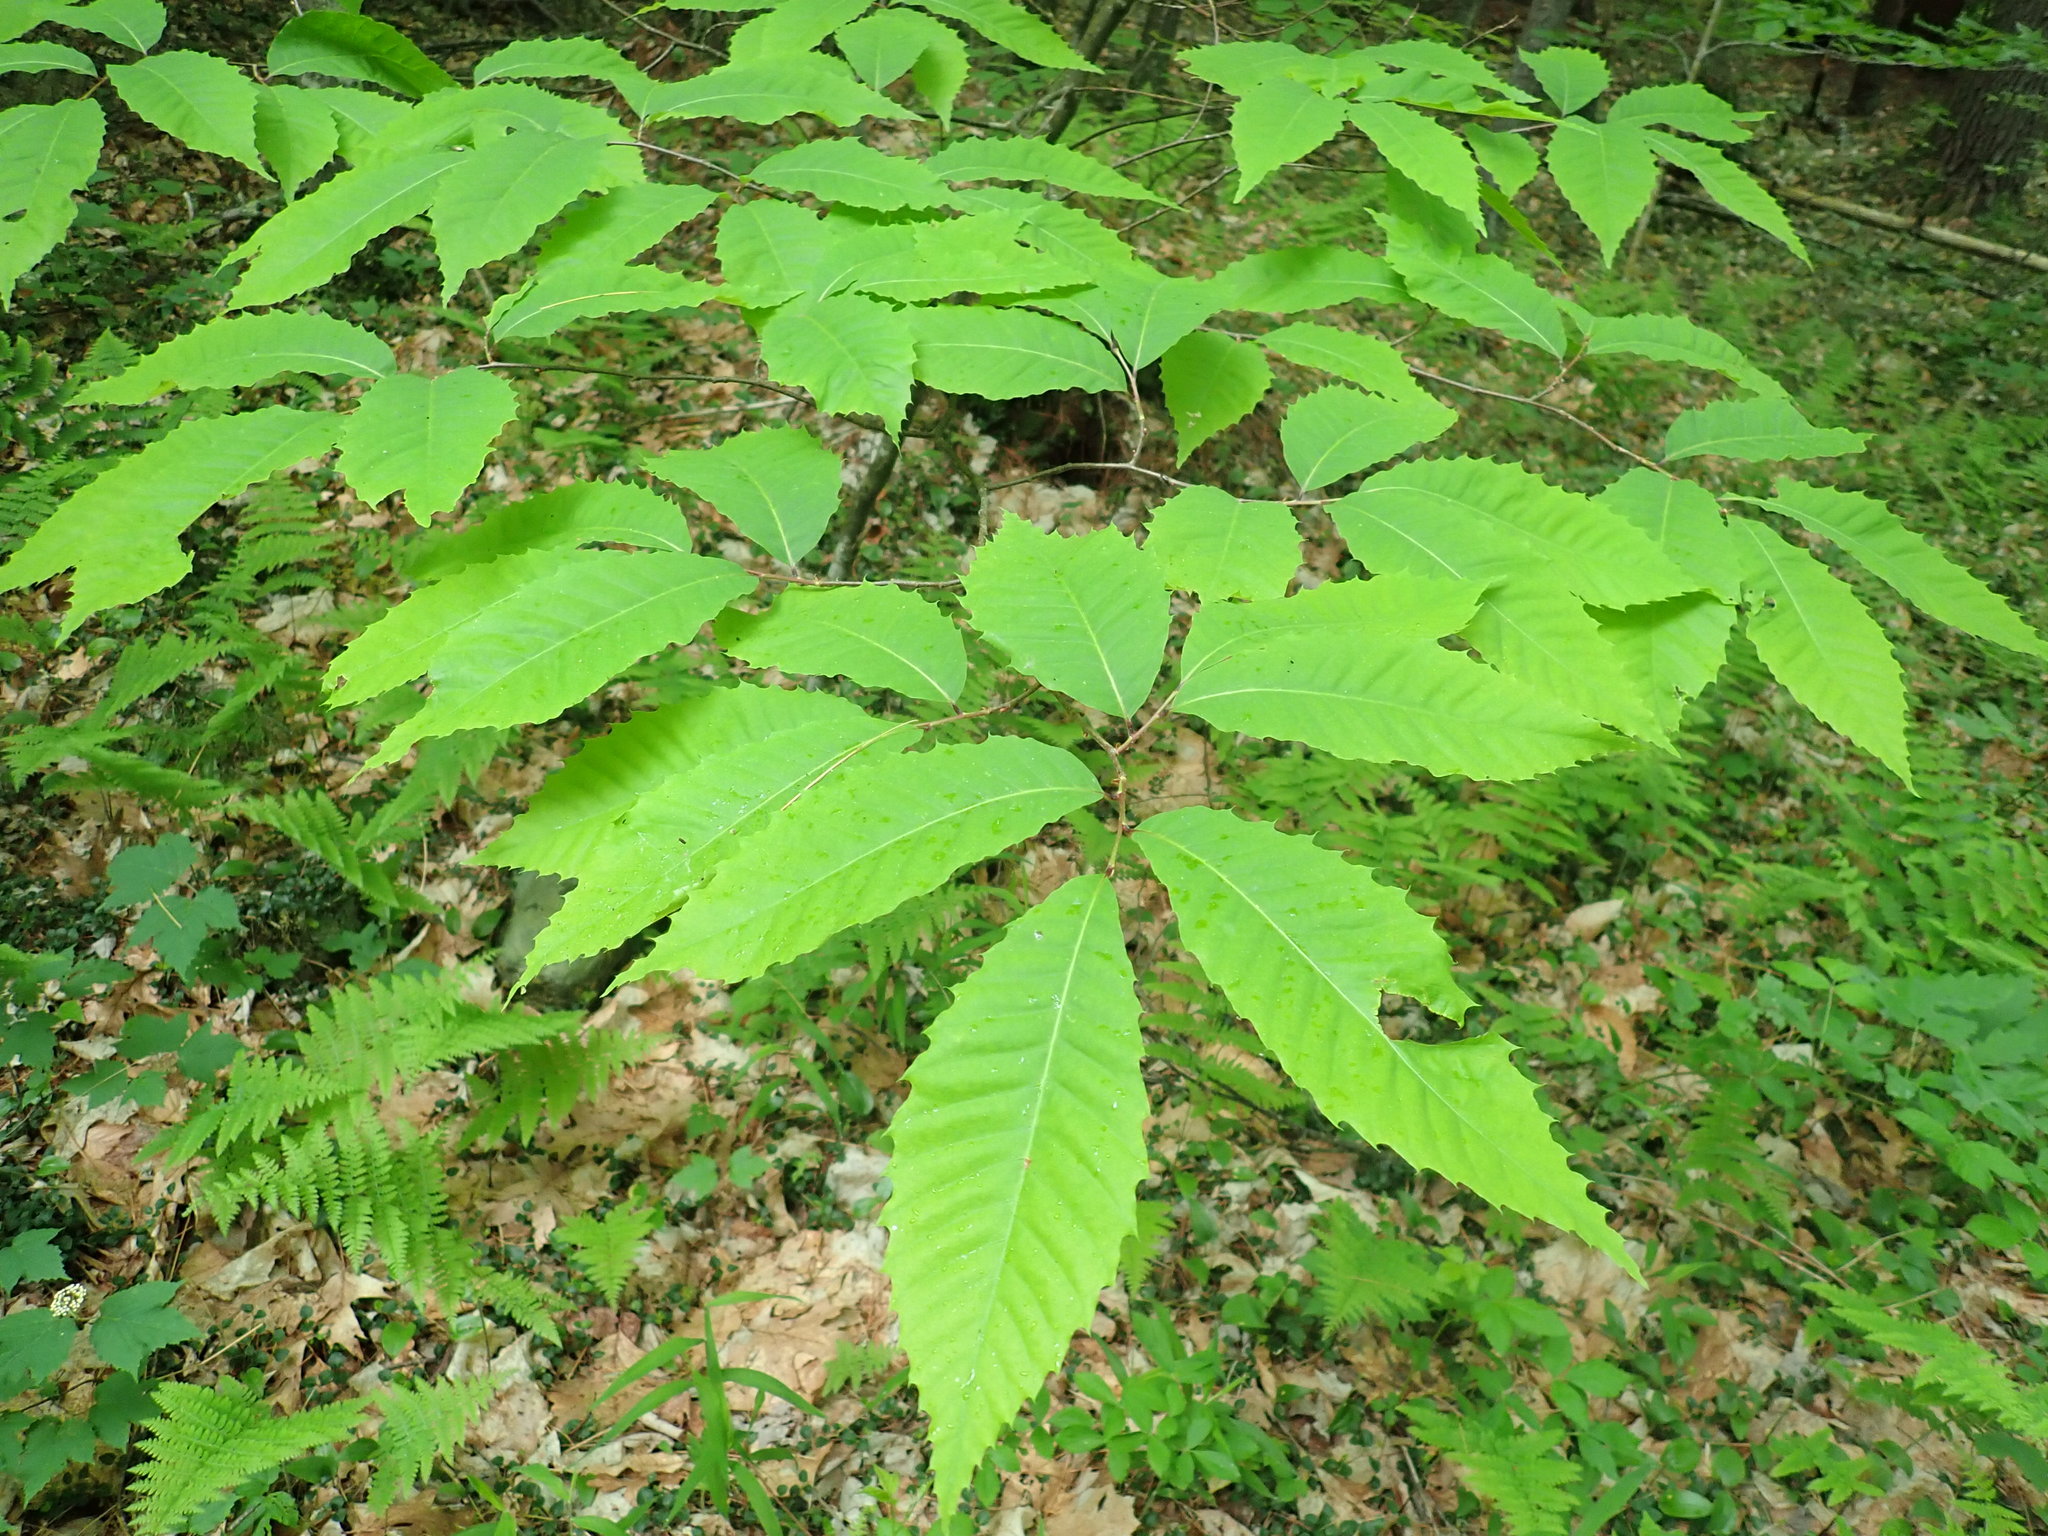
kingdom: Plantae
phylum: Tracheophyta
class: Magnoliopsida
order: Fagales
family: Fagaceae
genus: Castanea
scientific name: Castanea dentata
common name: American chestnut
